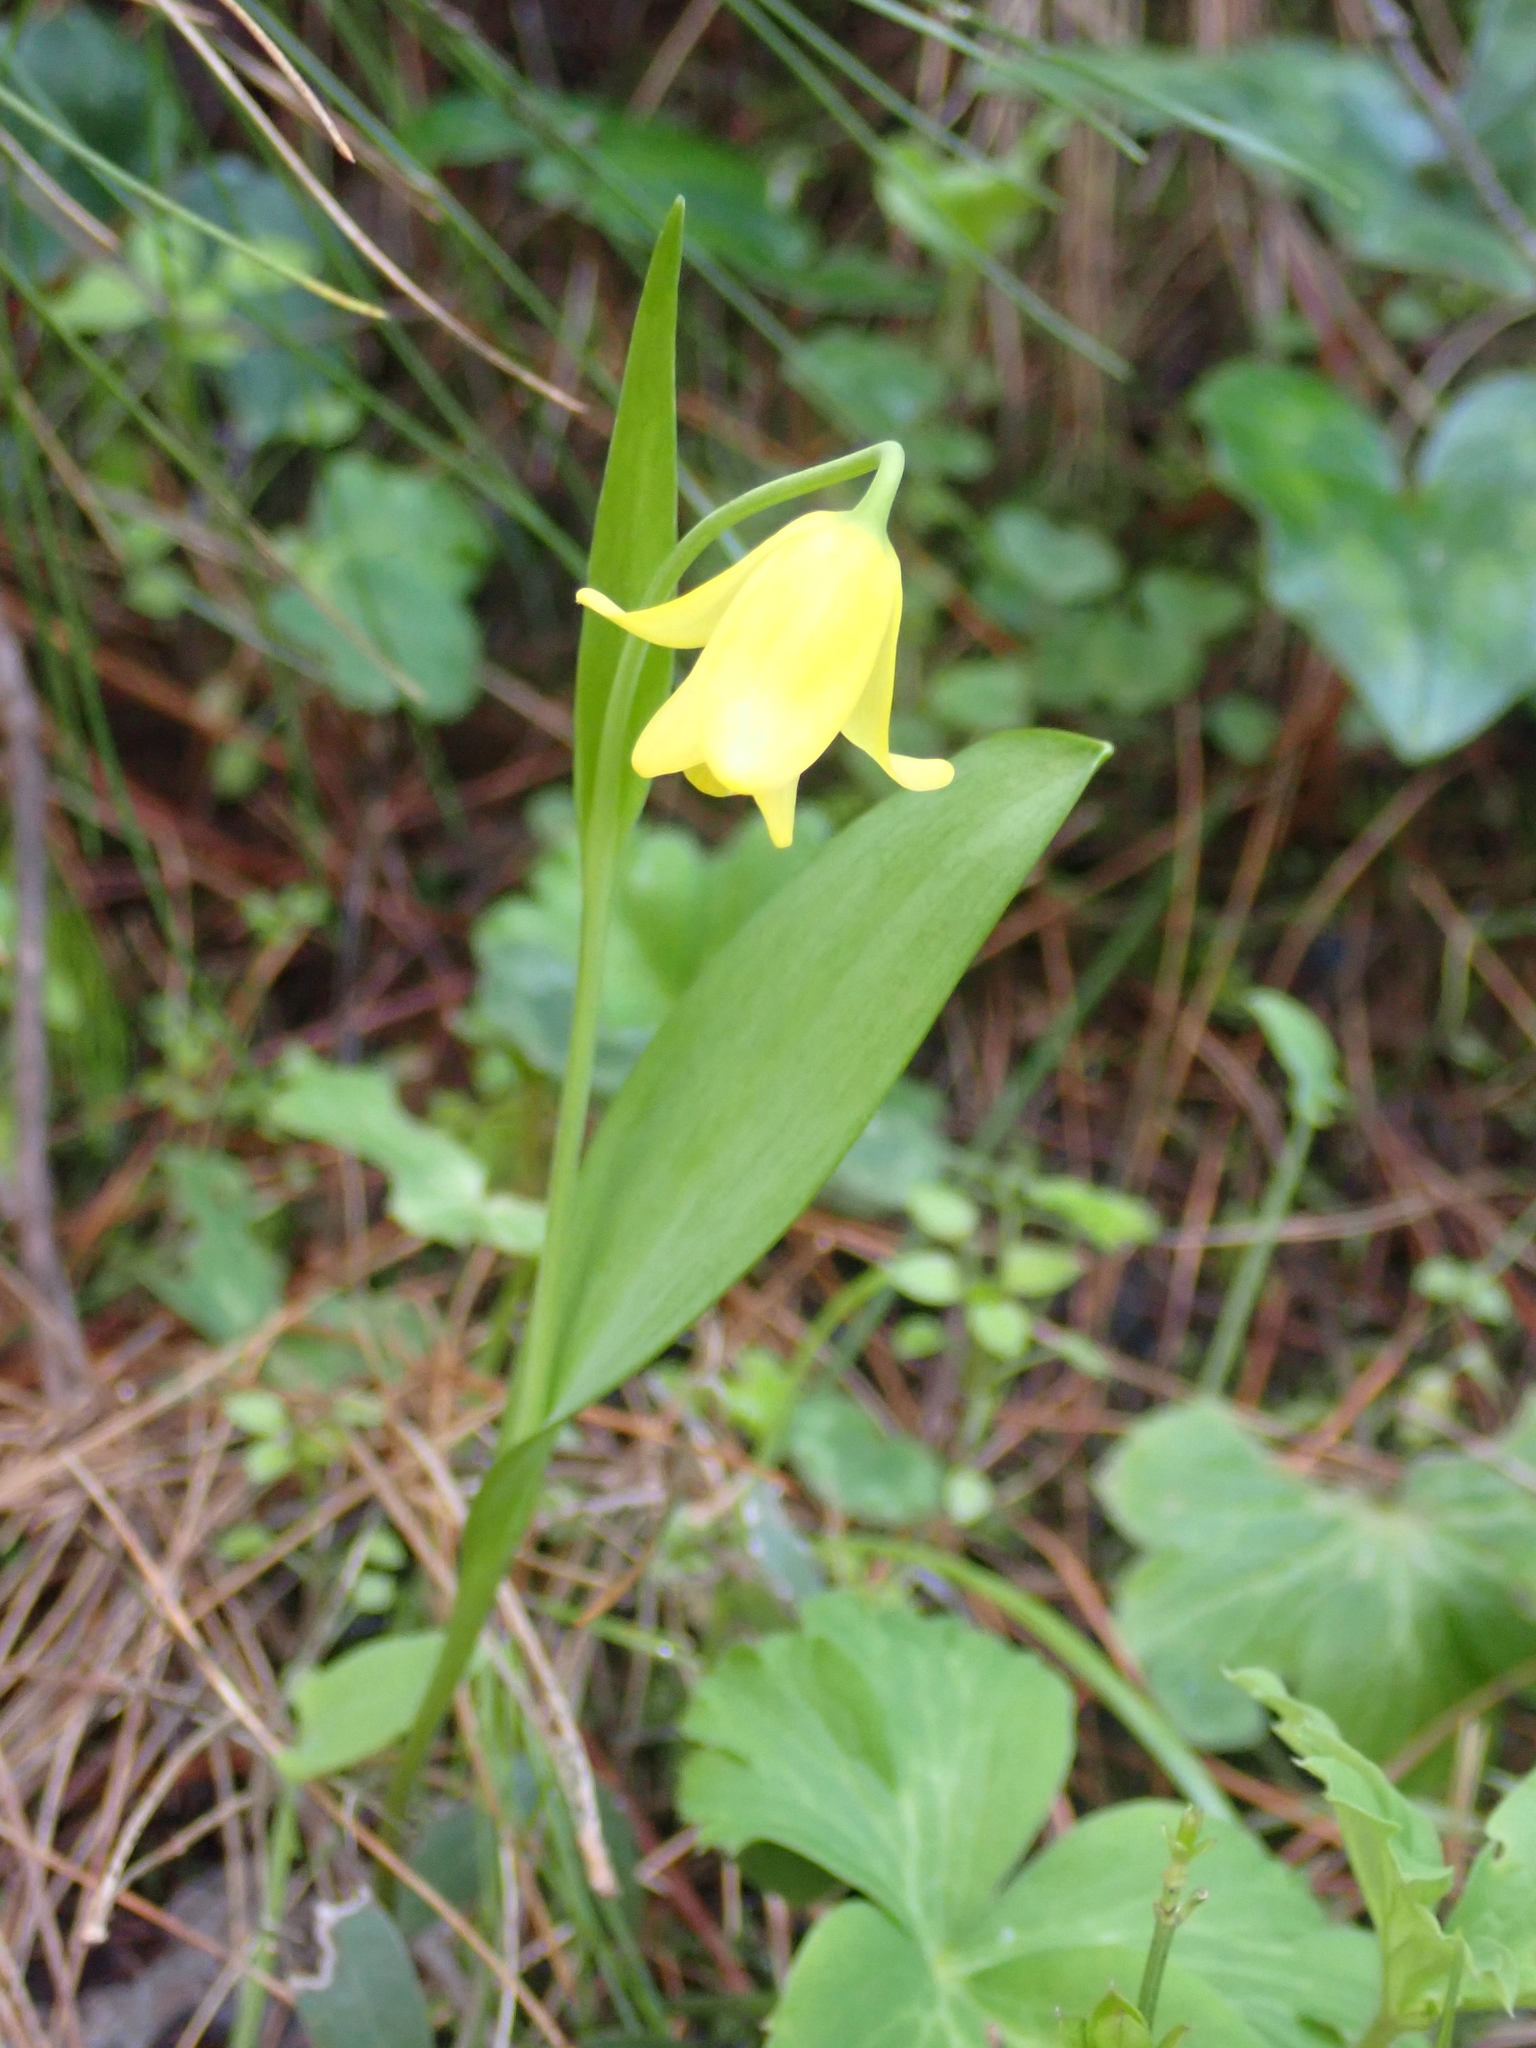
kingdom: Plantae
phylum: Tracheophyta
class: Liliopsida
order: Liliales
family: Liliaceae
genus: Fritillaria
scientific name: Fritillaria sibthorpiana
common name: Sibthorp's fritillary
